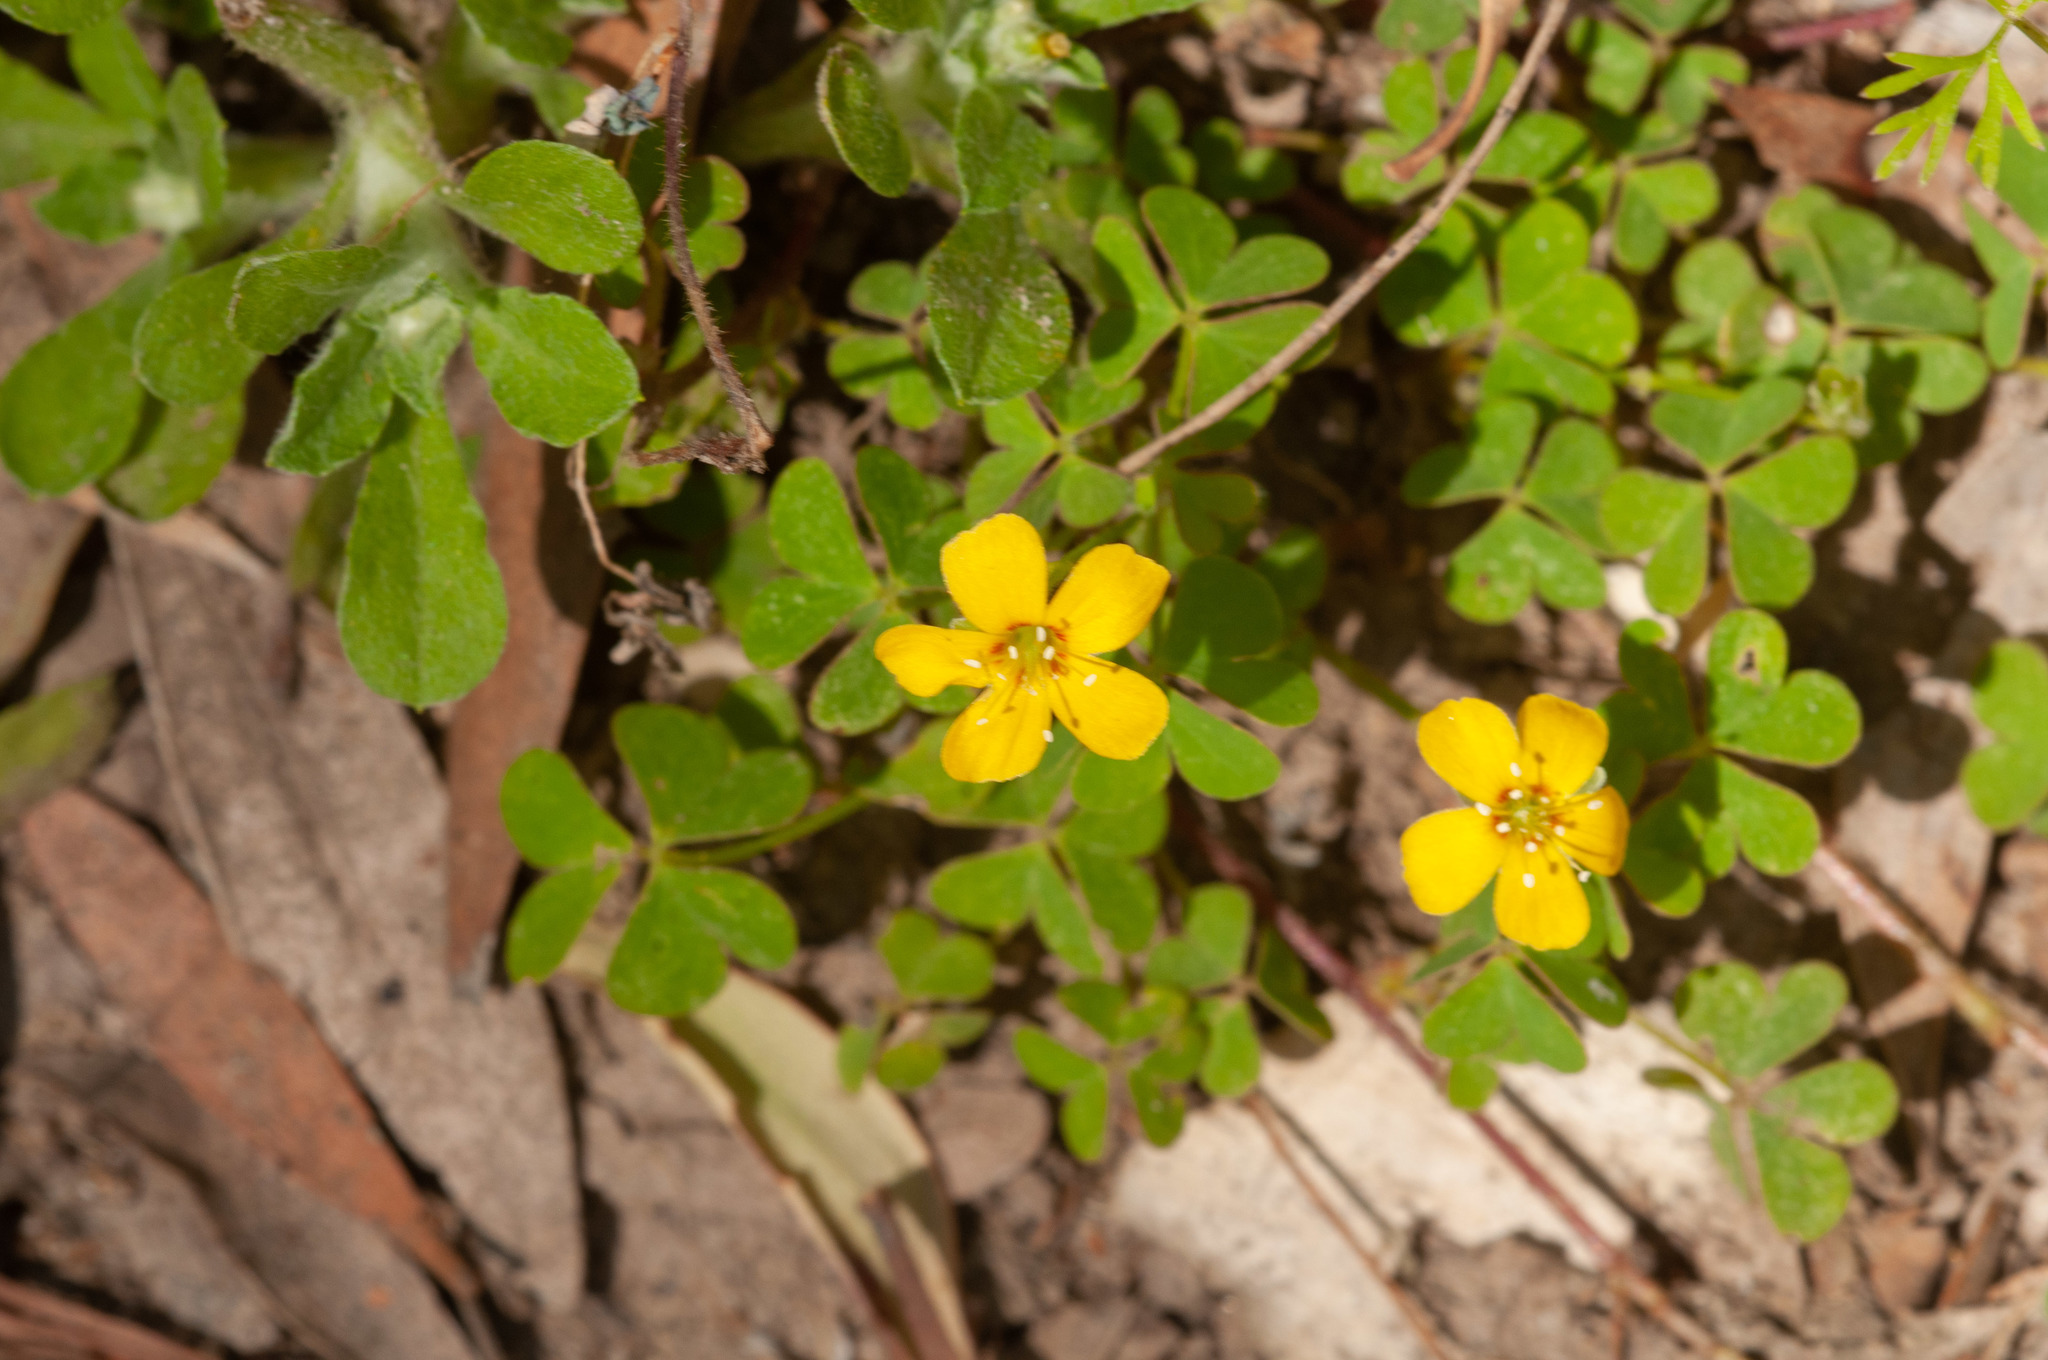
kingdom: Plantae
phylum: Tracheophyta
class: Magnoliopsida
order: Oxalidales
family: Oxalidaceae
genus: Oxalis
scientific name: Oxalis corniculata
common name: Procumbent yellow-sorrel
